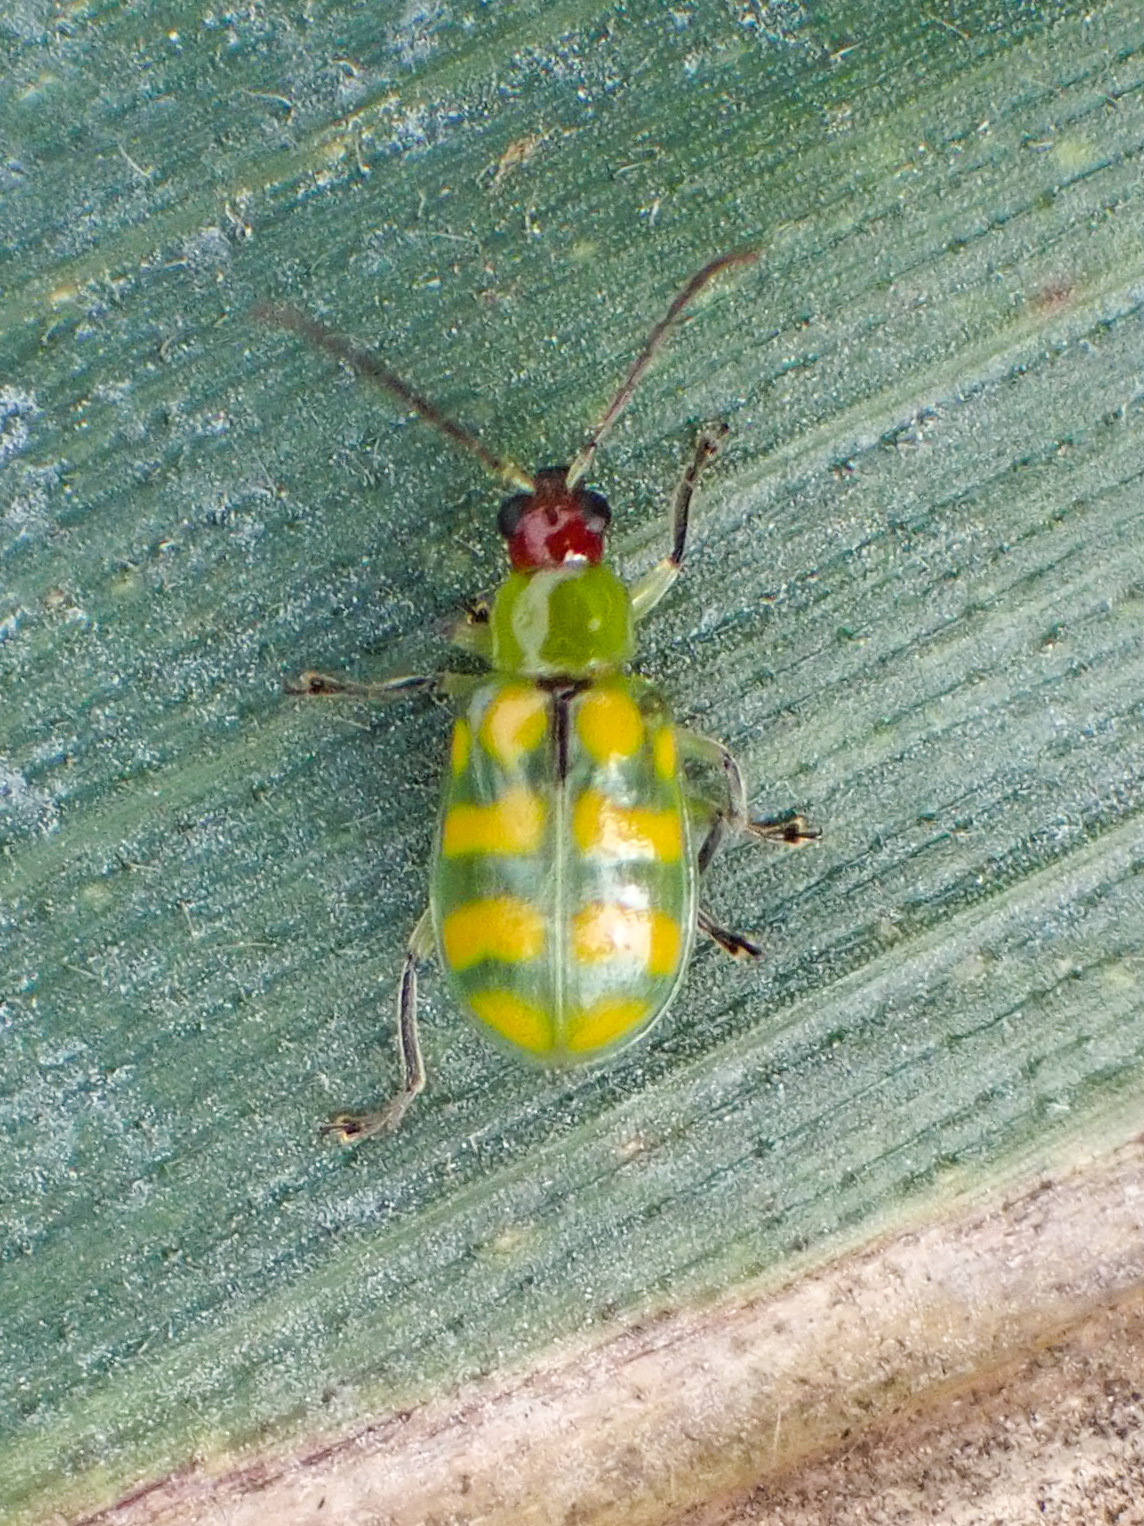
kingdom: Animalia
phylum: Arthropoda
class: Insecta
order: Coleoptera
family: Chrysomelidae
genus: Diabrotica
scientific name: Diabrotica balteata
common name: Leaf beetle
